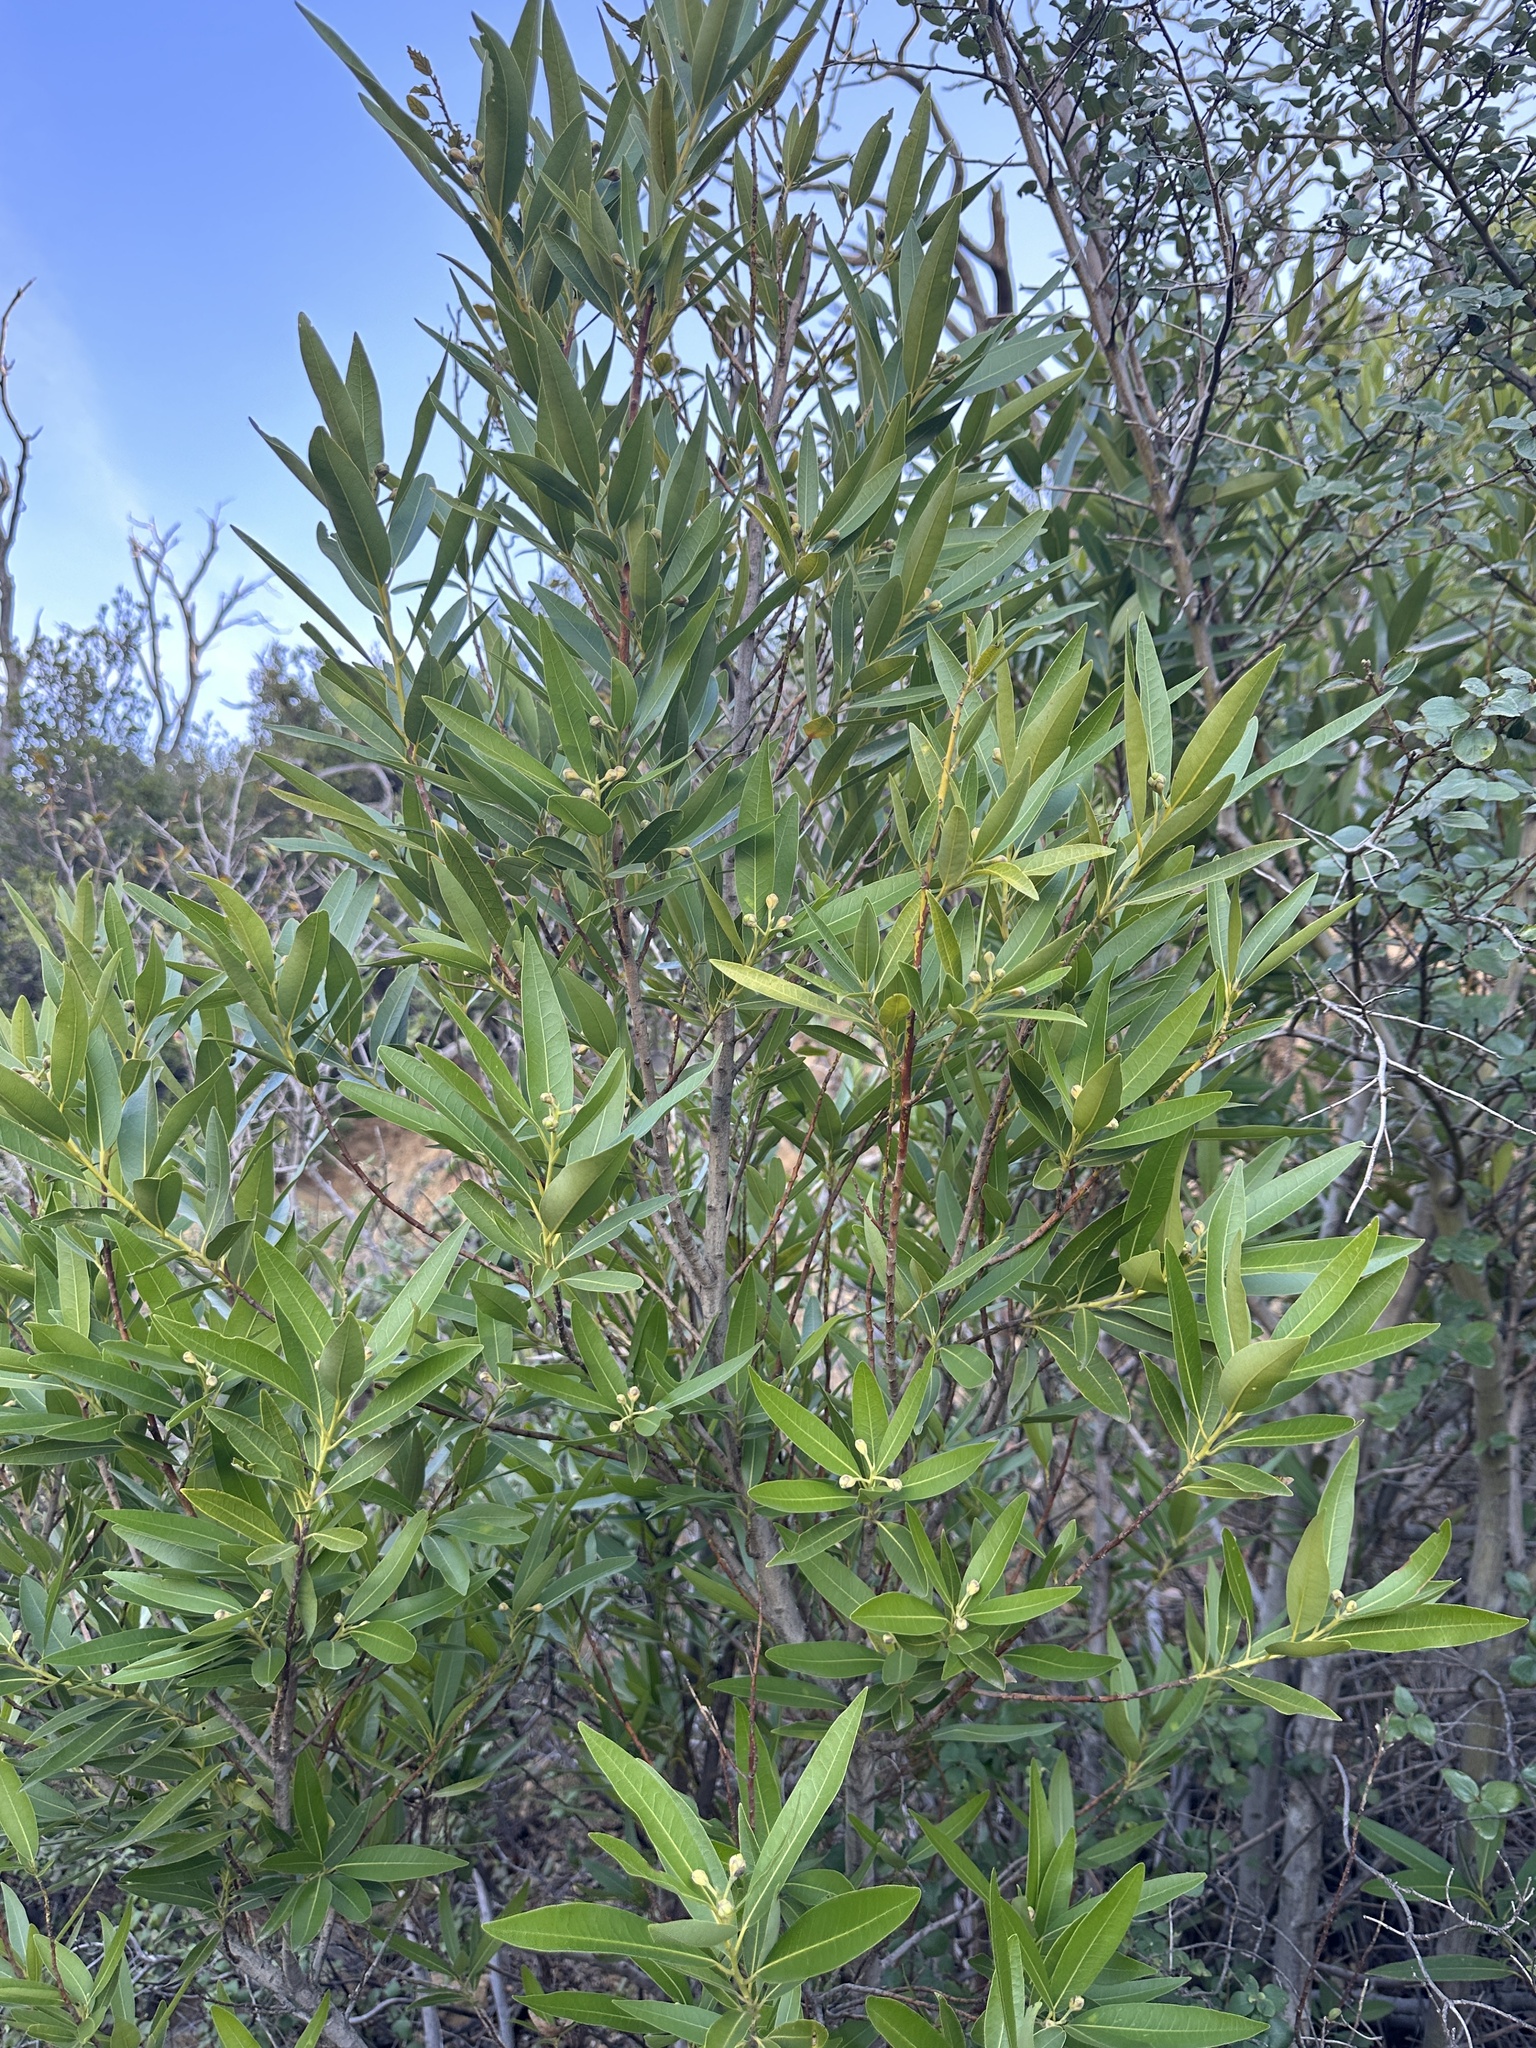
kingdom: Plantae
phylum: Tracheophyta
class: Magnoliopsida
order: Laurales
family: Lauraceae
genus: Umbellularia
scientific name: Umbellularia californica
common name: California bay
